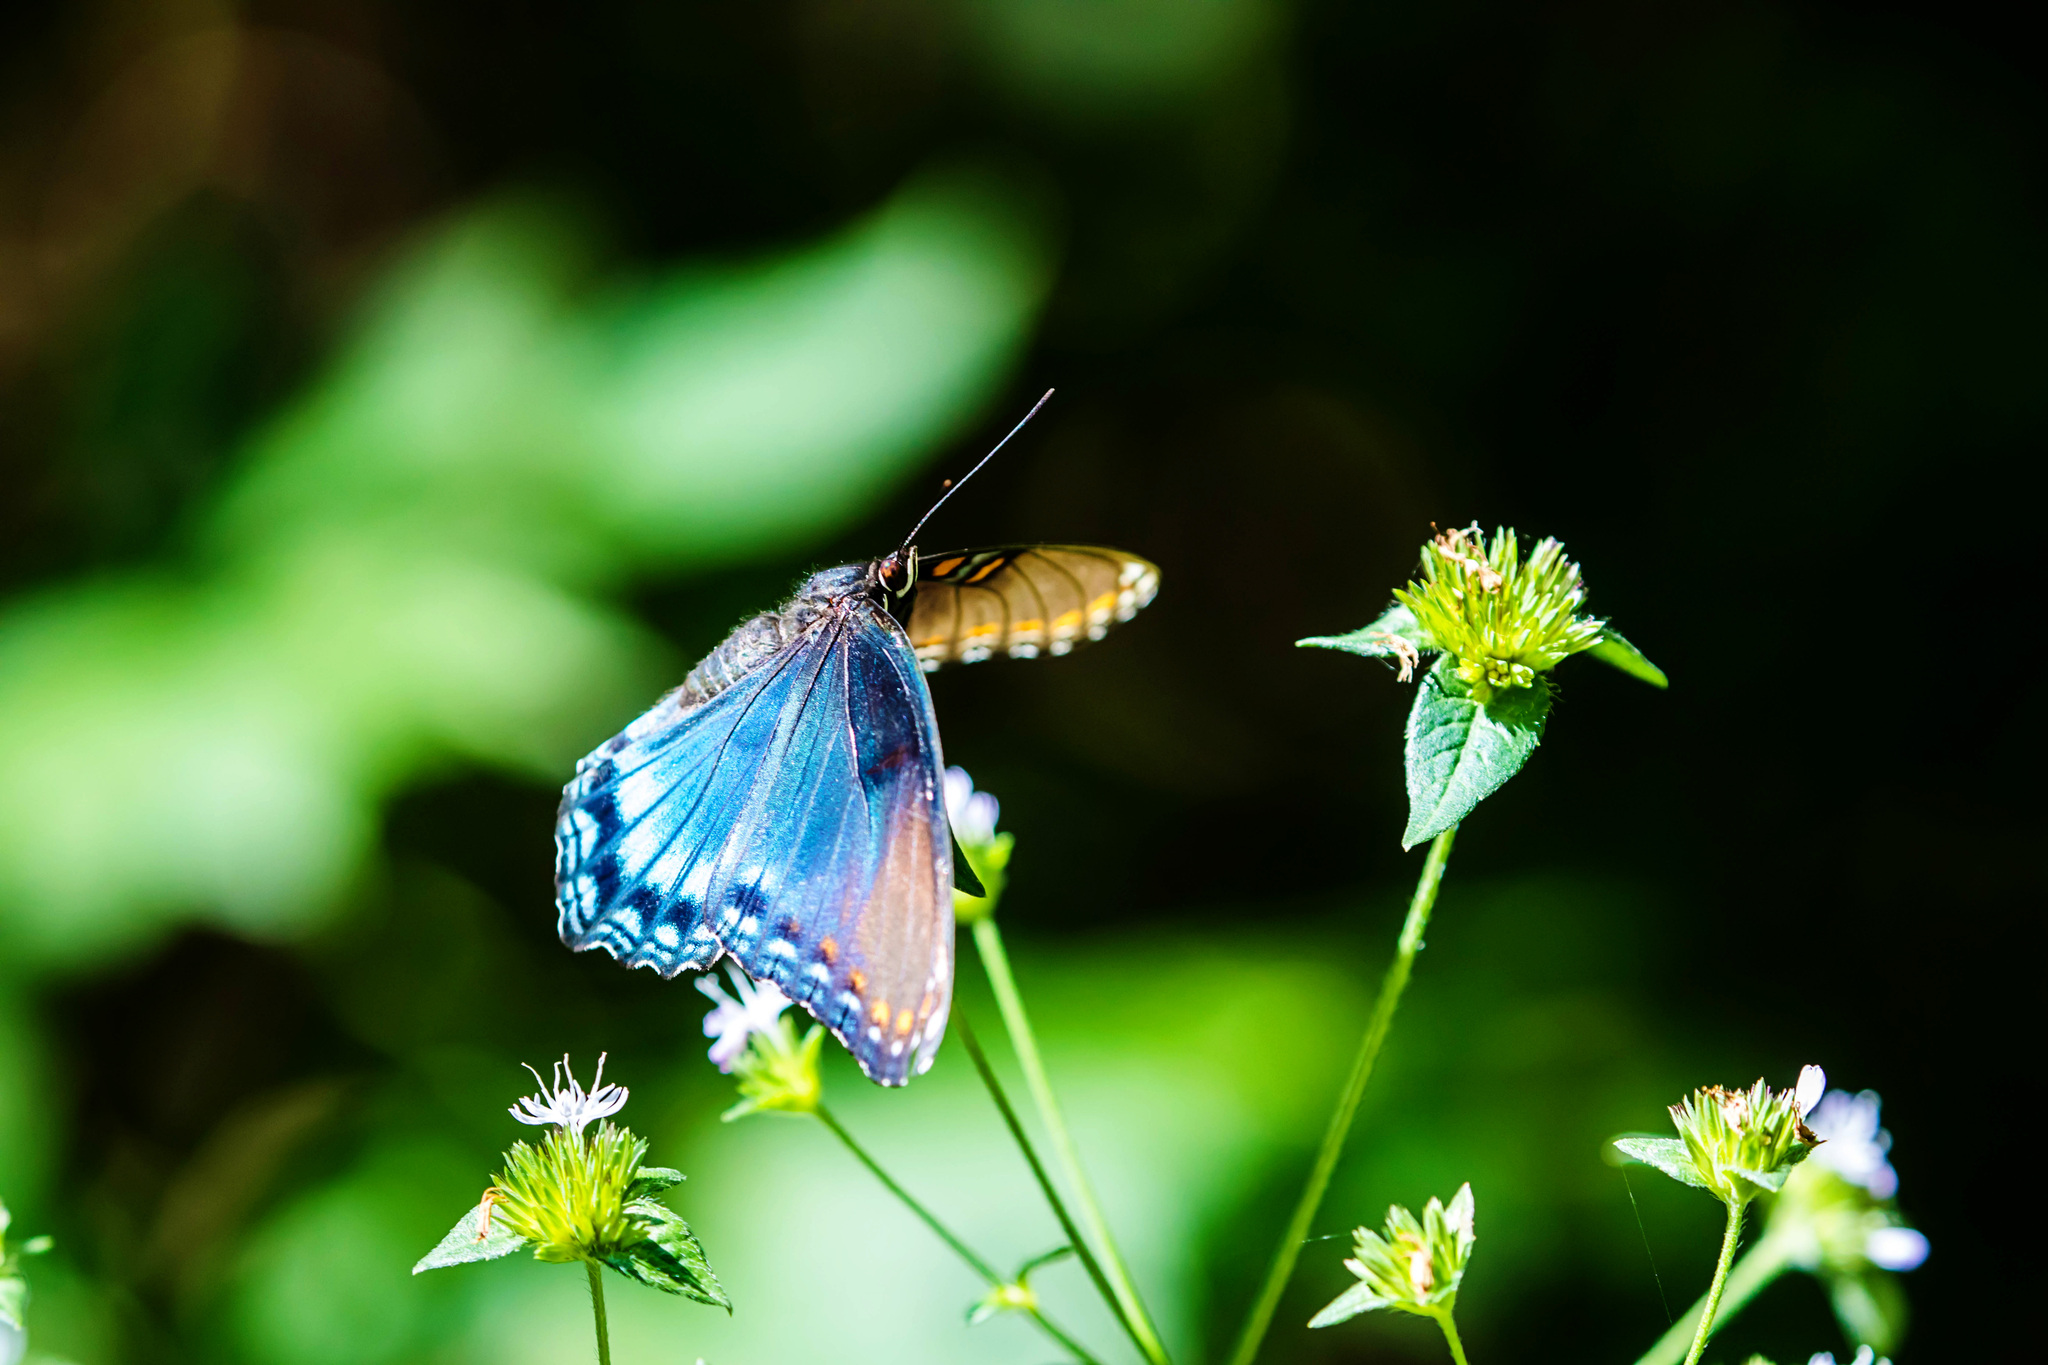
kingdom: Animalia
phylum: Arthropoda
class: Insecta
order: Lepidoptera
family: Nymphalidae
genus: Limenitis
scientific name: Limenitis astyanax
